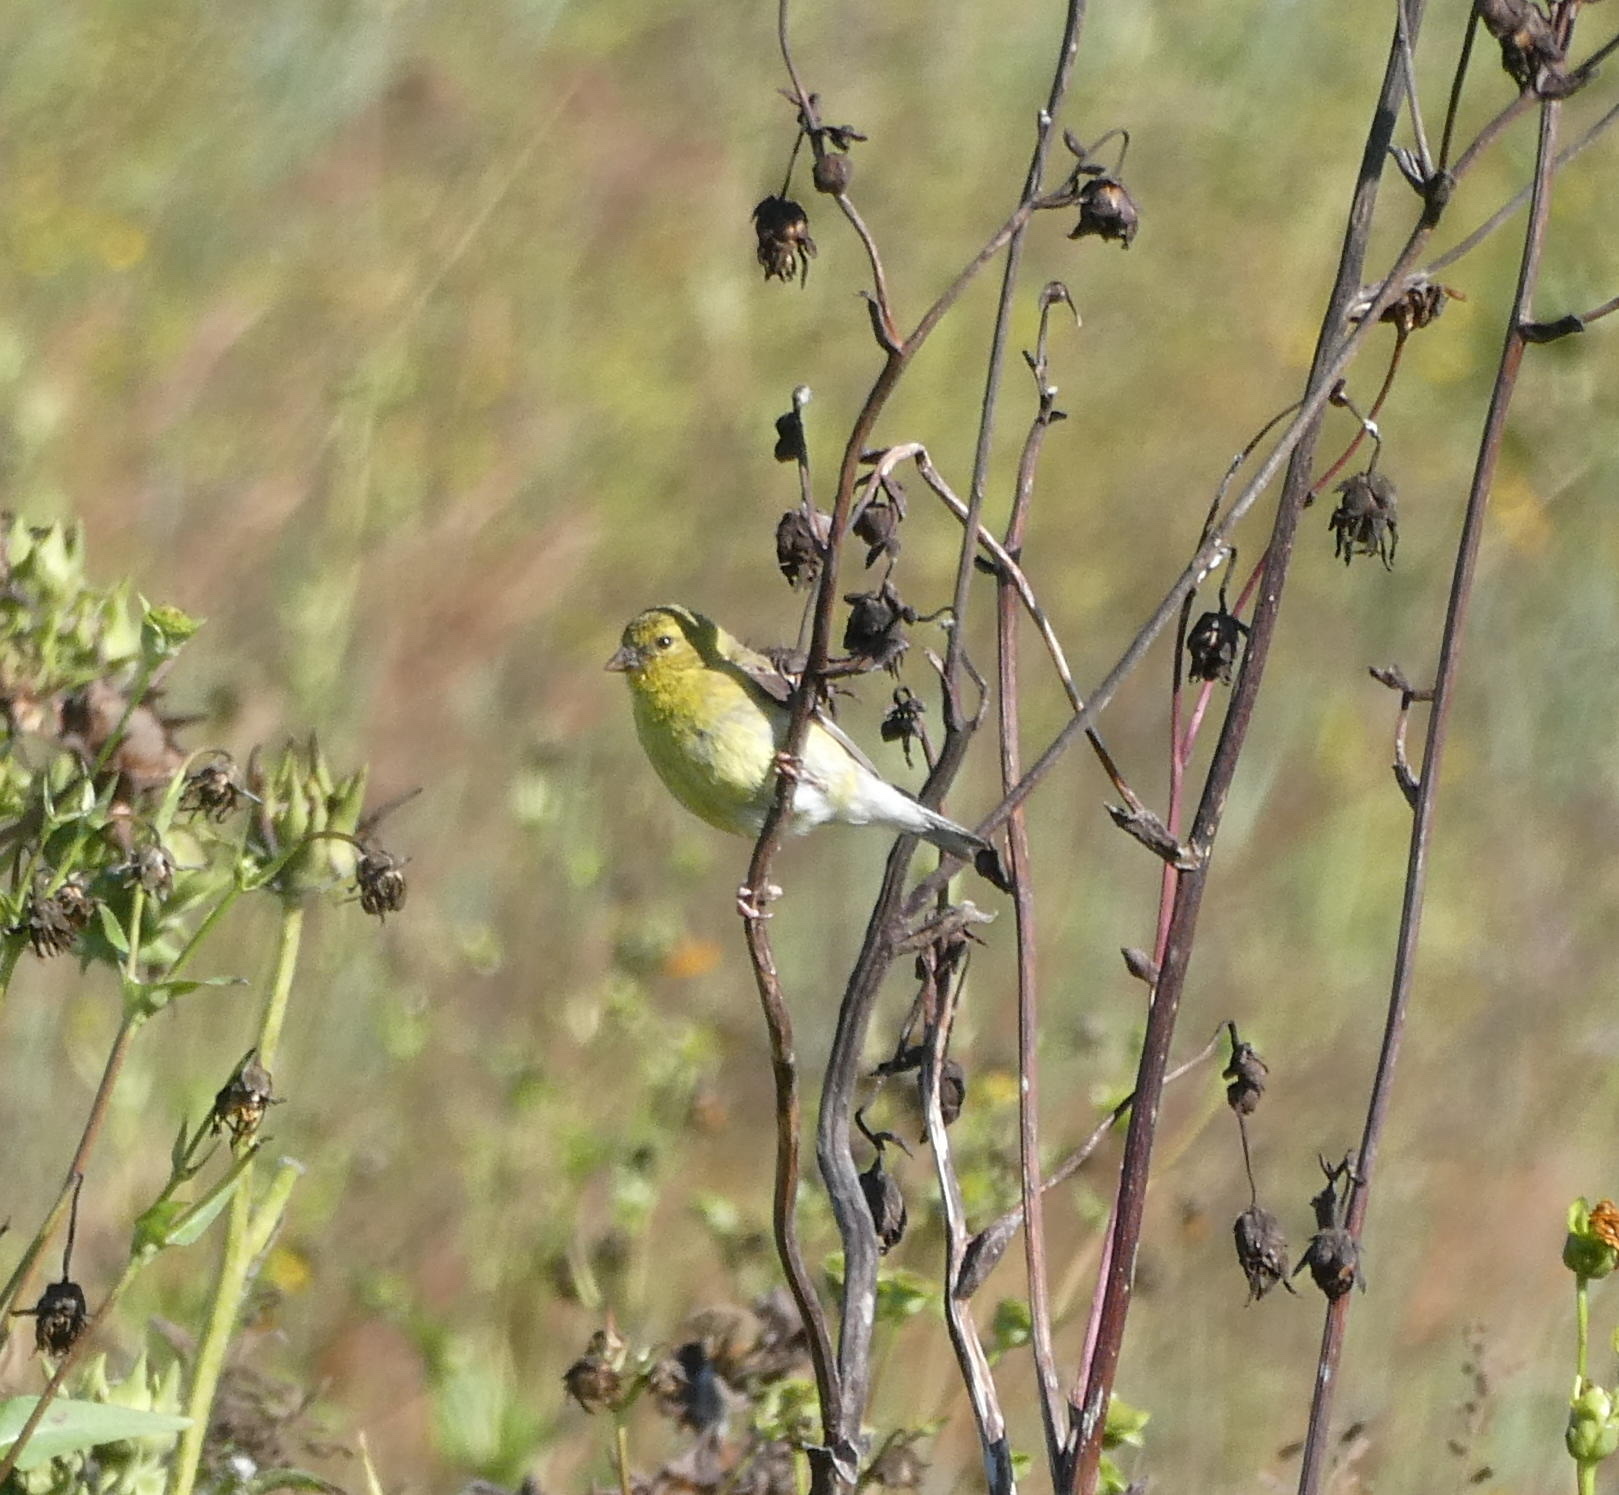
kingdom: Animalia
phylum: Chordata
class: Aves
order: Passeriformes
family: Fringillidae
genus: Spinus
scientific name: Spinus tristis
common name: American goldfinch
